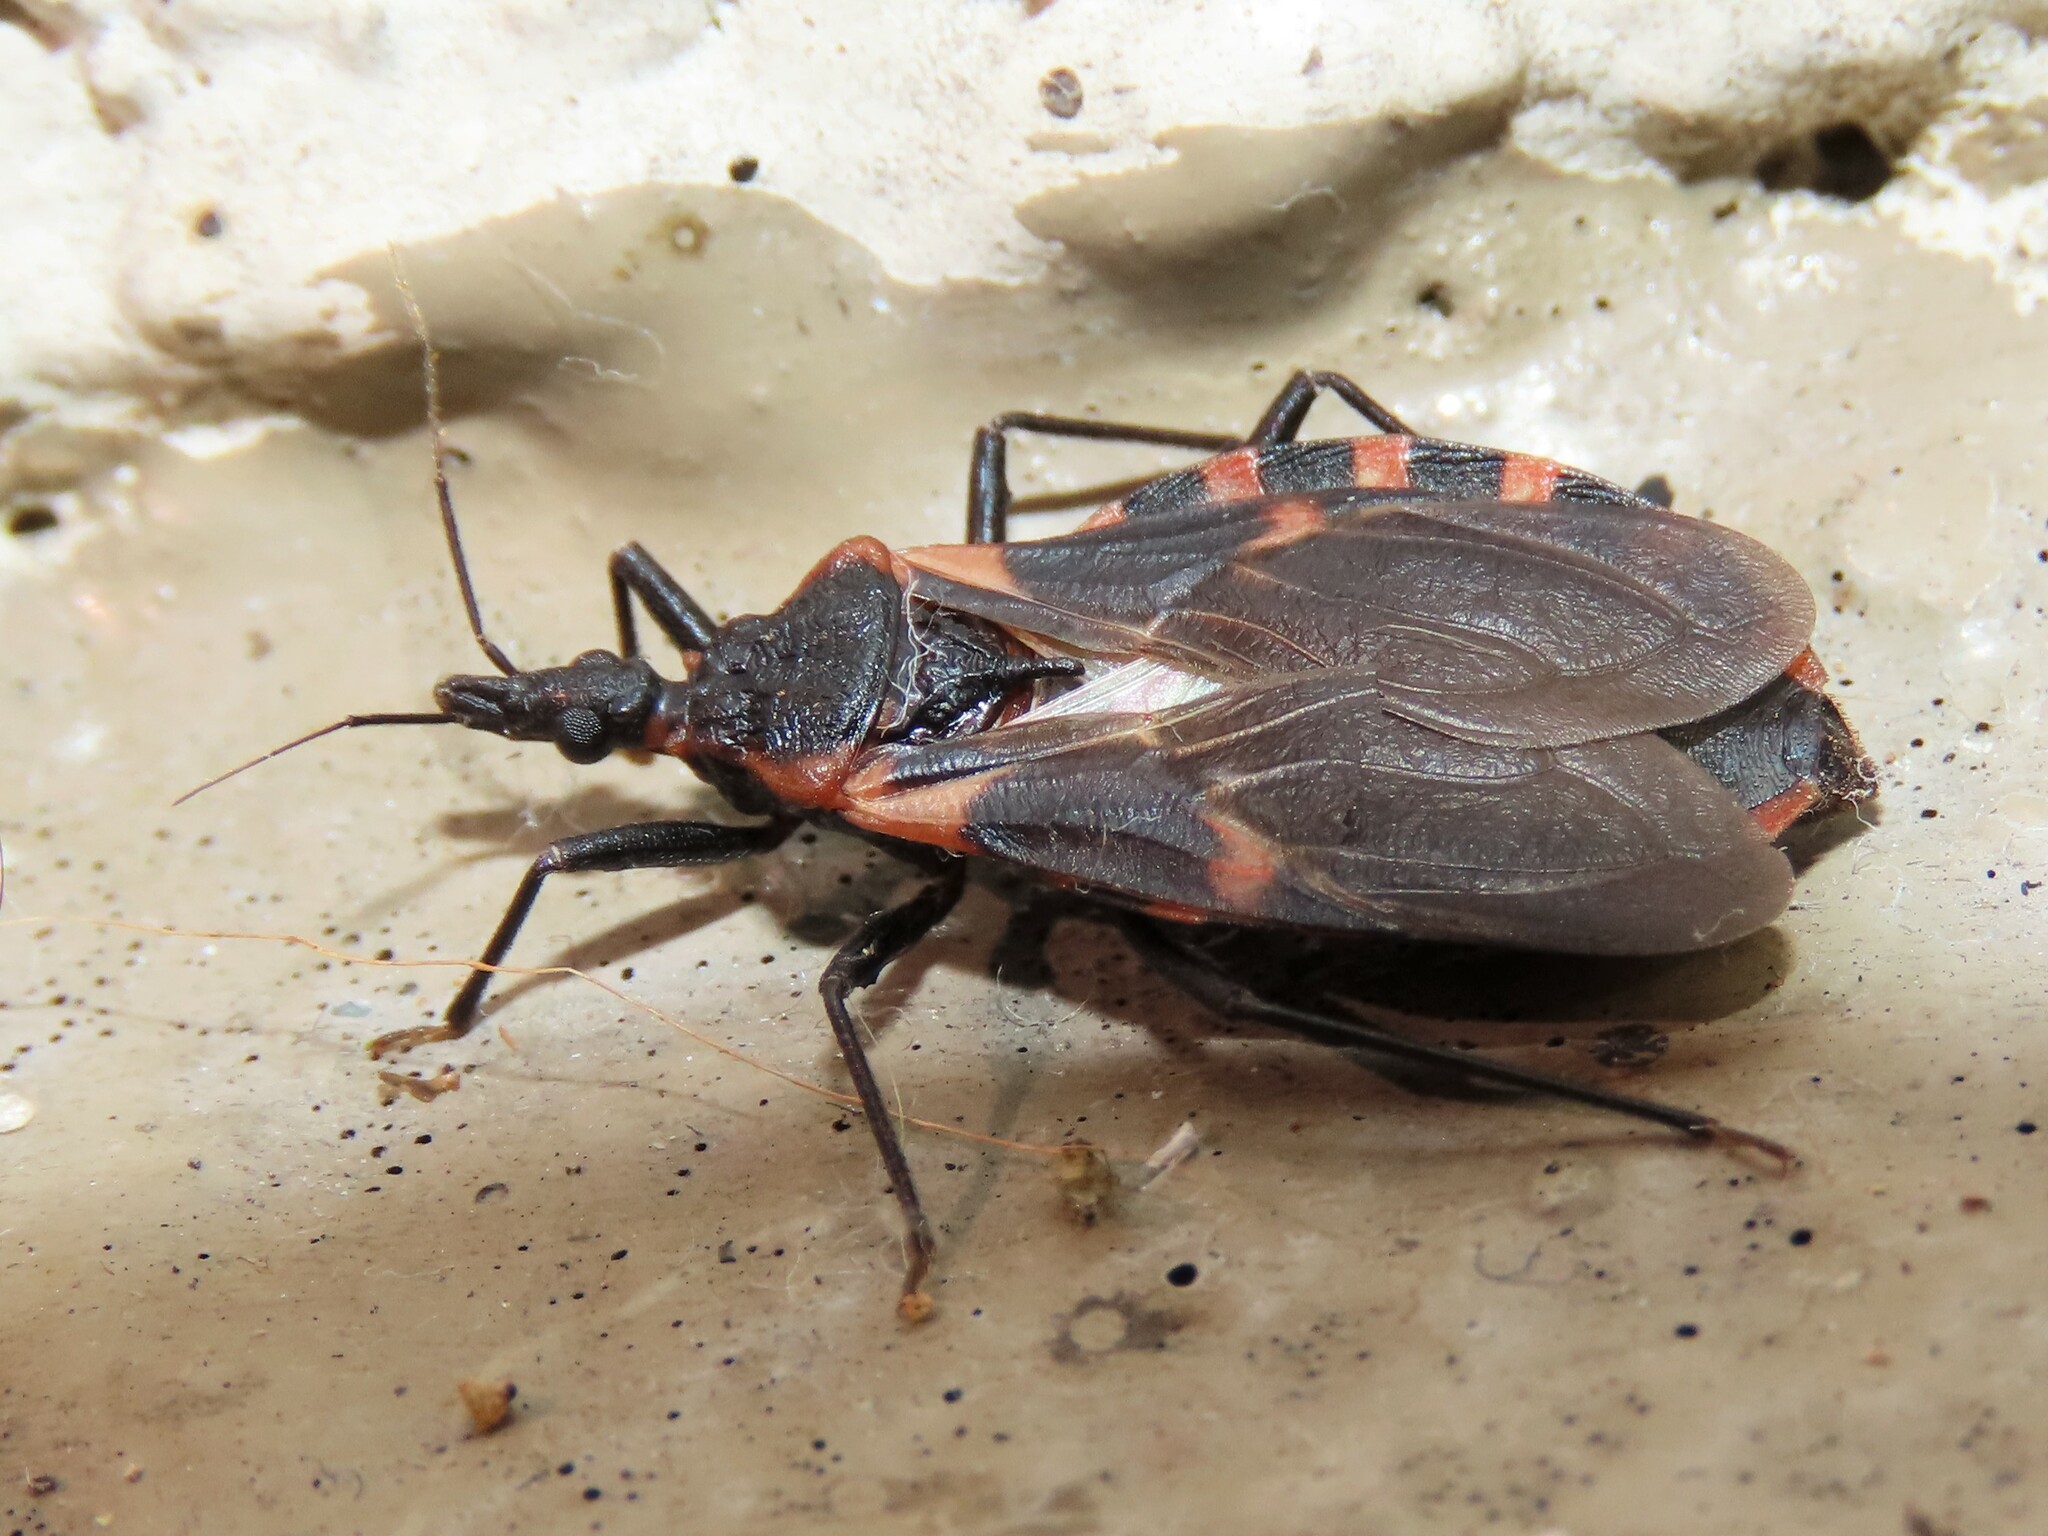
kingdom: Animalia
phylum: Arthropoda
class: Insecta
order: Hemiptera
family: Reduviidae
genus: Triatoma
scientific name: Triatoma sanguisuga
